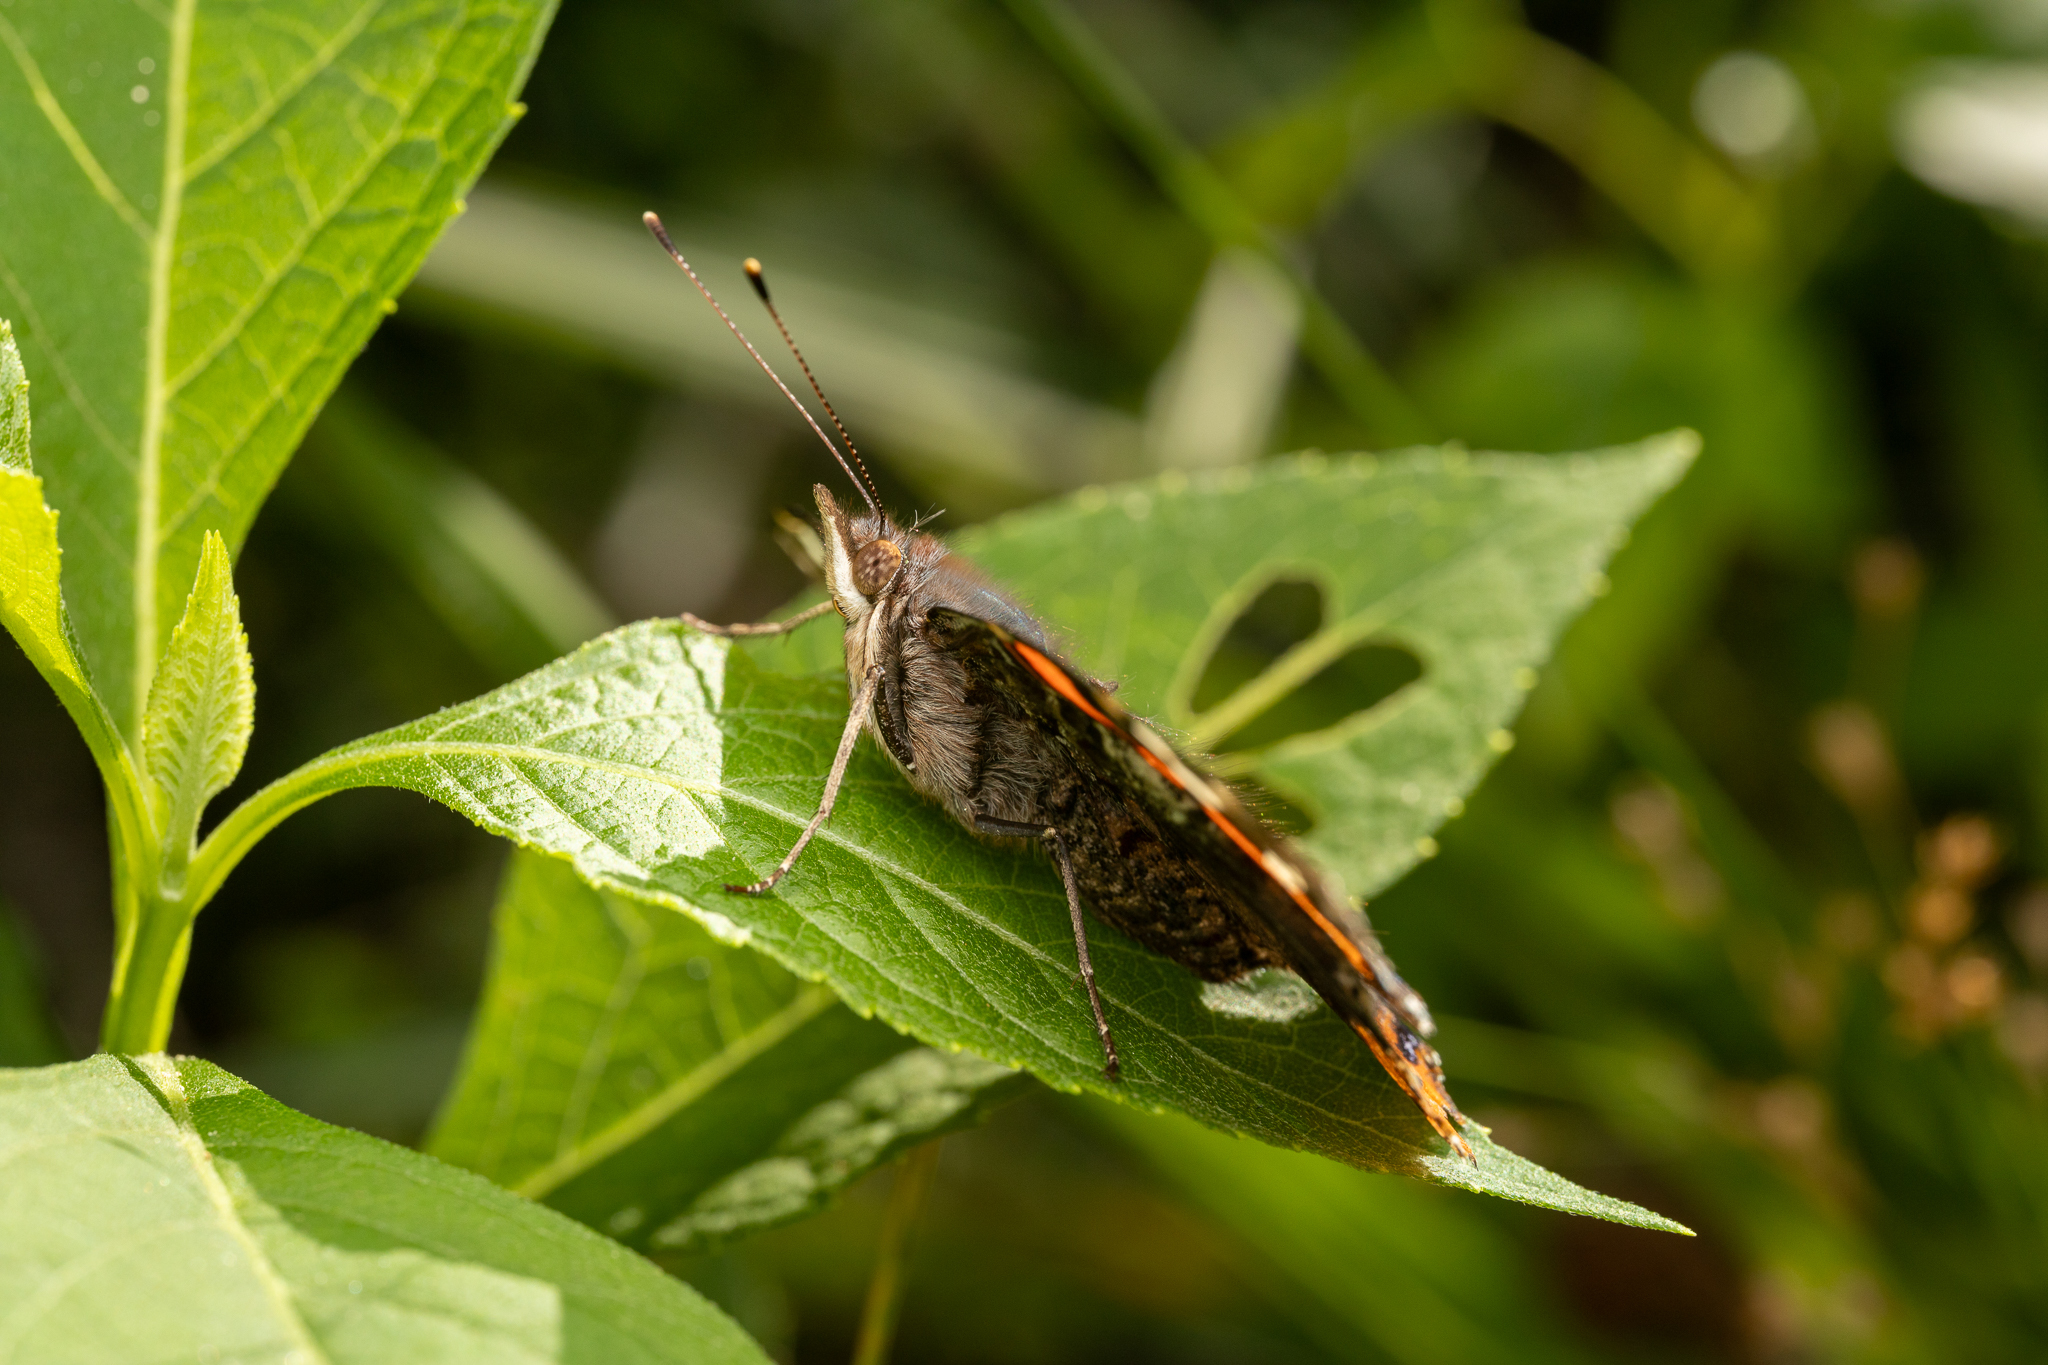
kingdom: Animalia
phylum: Arthropoda
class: Insecta
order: Lepidoptera
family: Nymphalidae
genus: Vanessa
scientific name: Vanessa atalanta
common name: Red admiral
